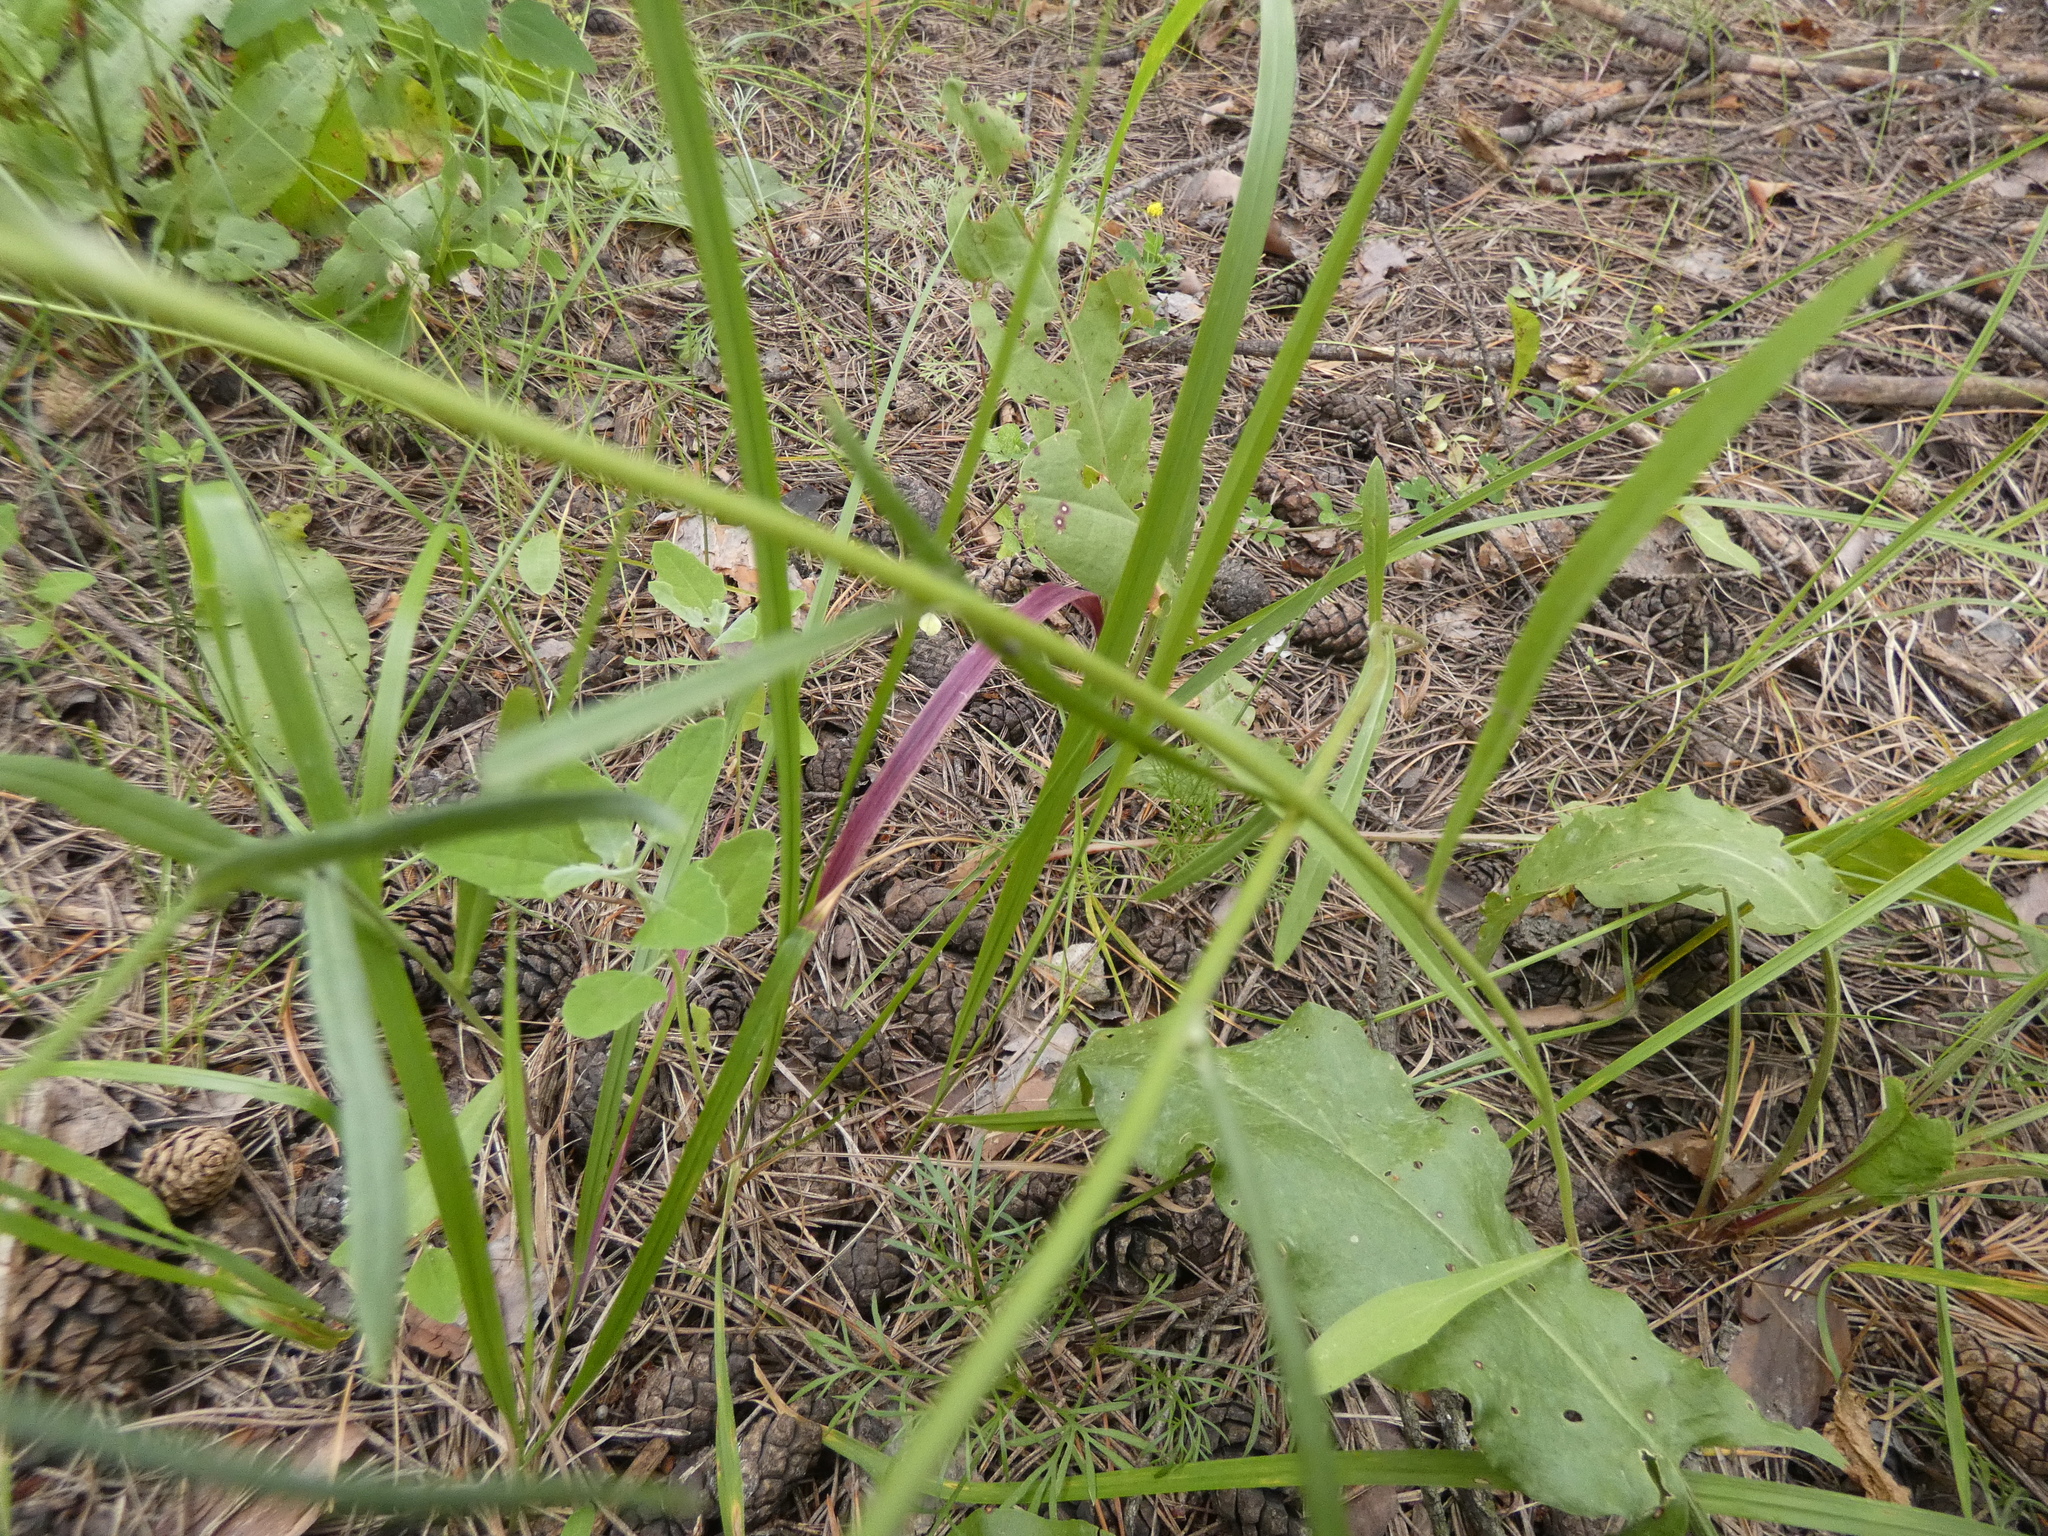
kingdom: Plantae
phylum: Tracheophyta
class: Magnoliopsida
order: Asterales
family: Asteraceae
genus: Crepis
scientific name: Crepis tectorum
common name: Narrow-leaved hawk's-beard
